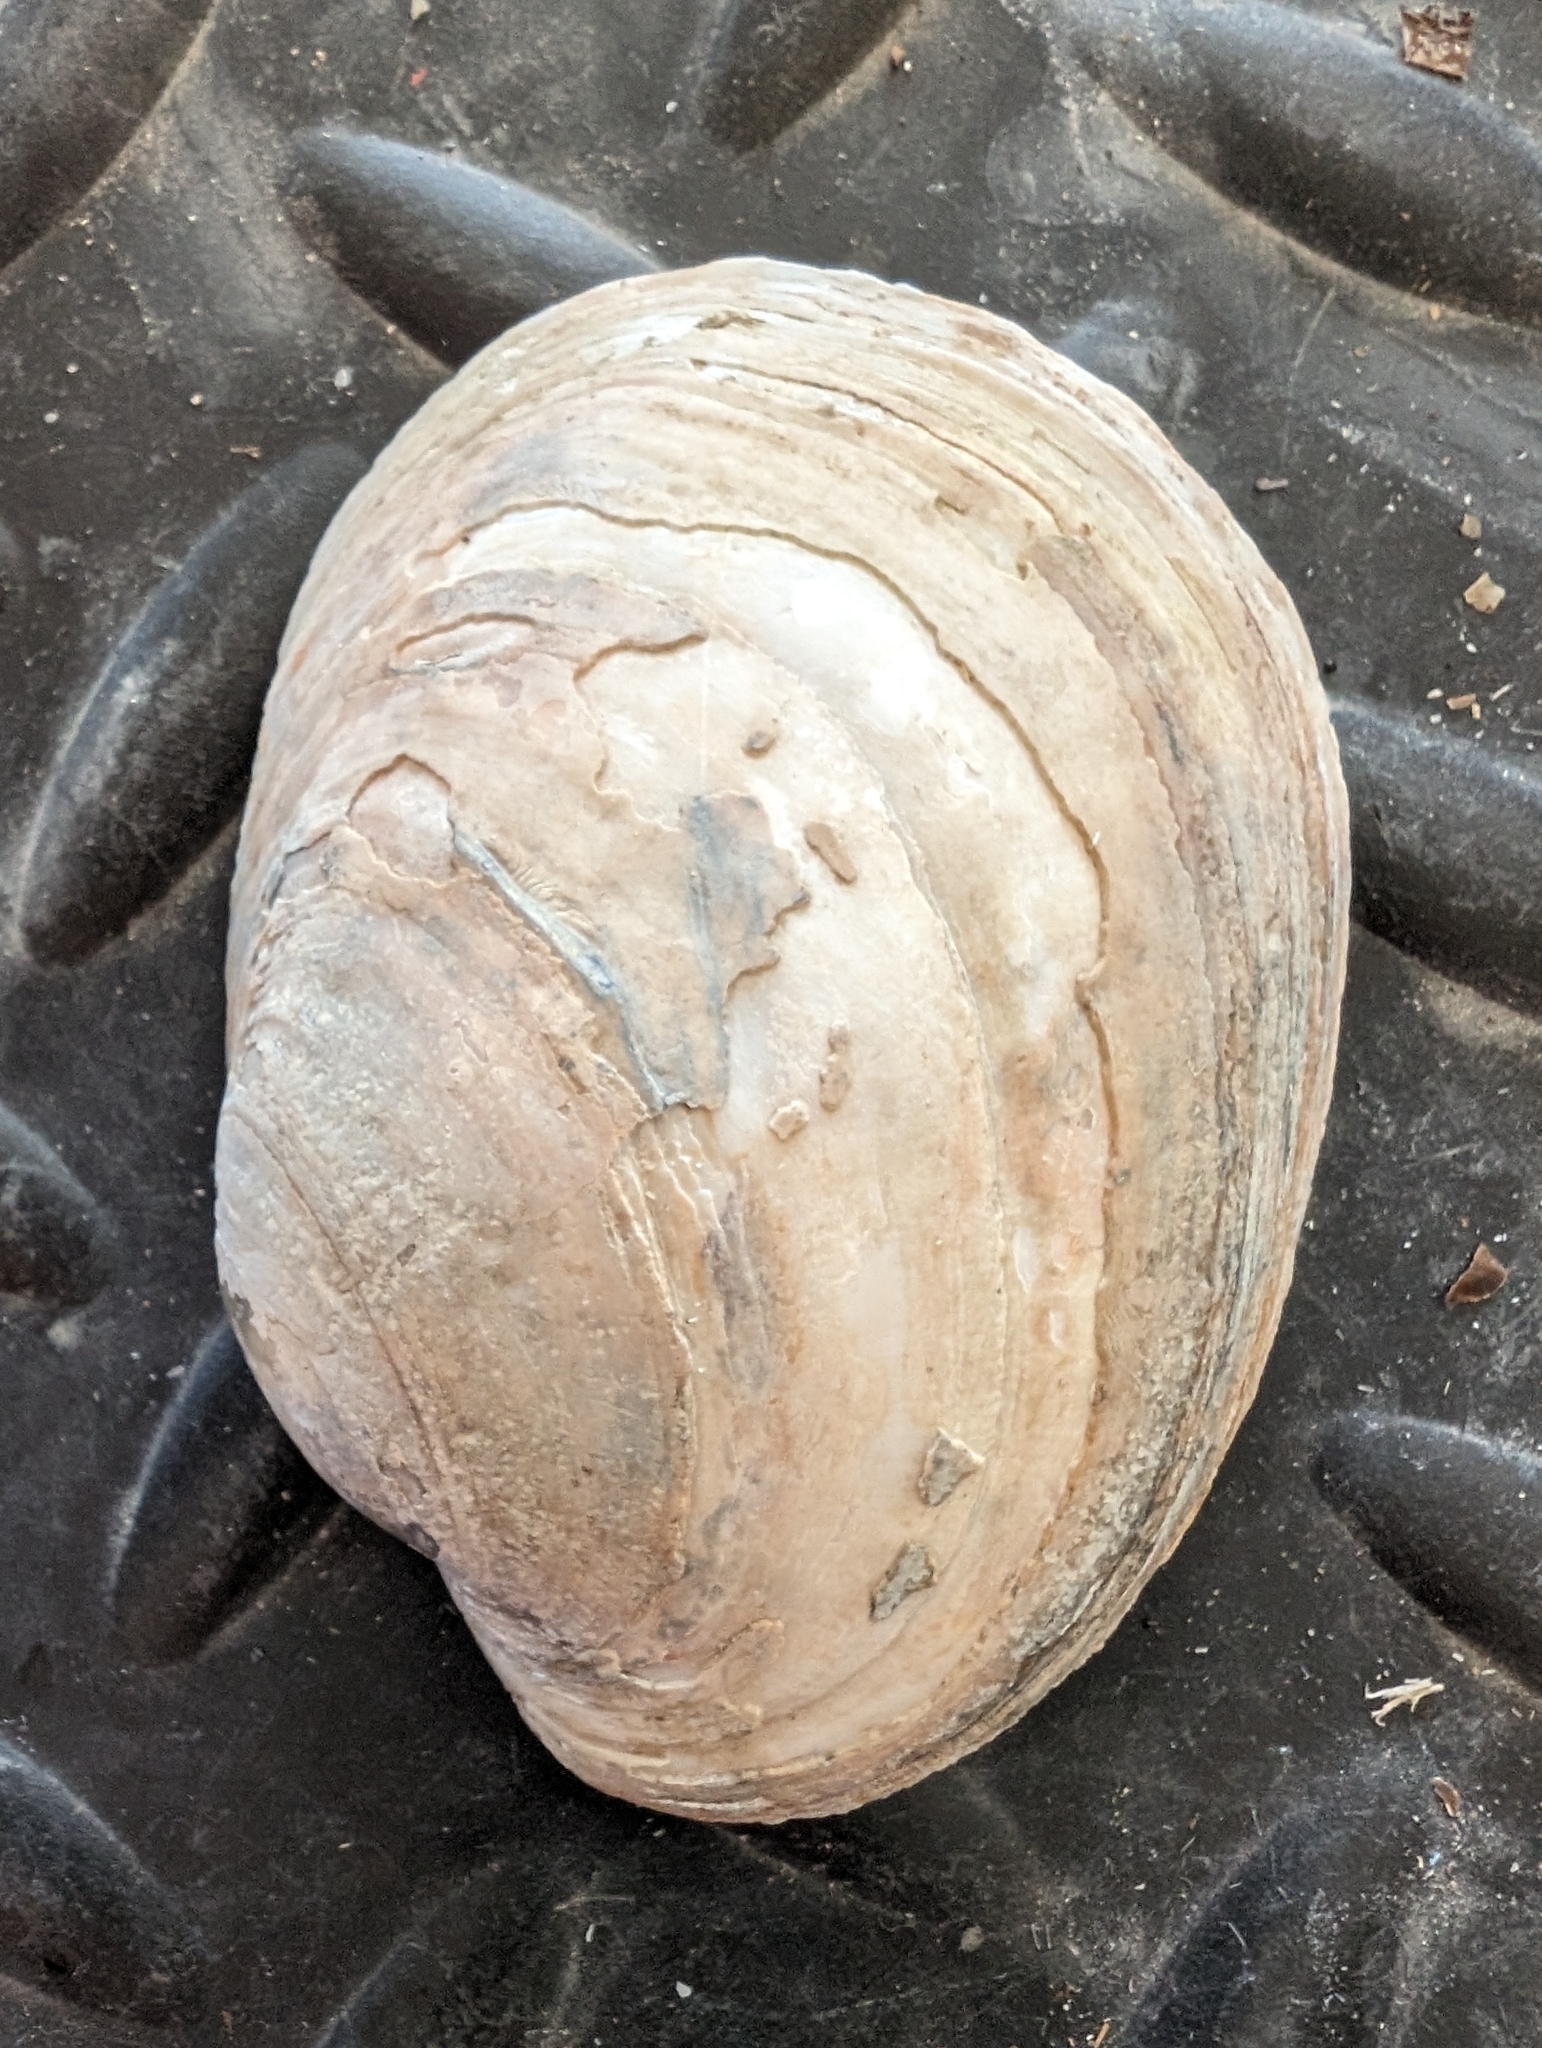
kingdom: Animalia
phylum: Mollusca
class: Bivalvia
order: Unionida
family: Unionidae
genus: Lampsilis
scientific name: Lampsilis cardium
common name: Plain pocketbook
